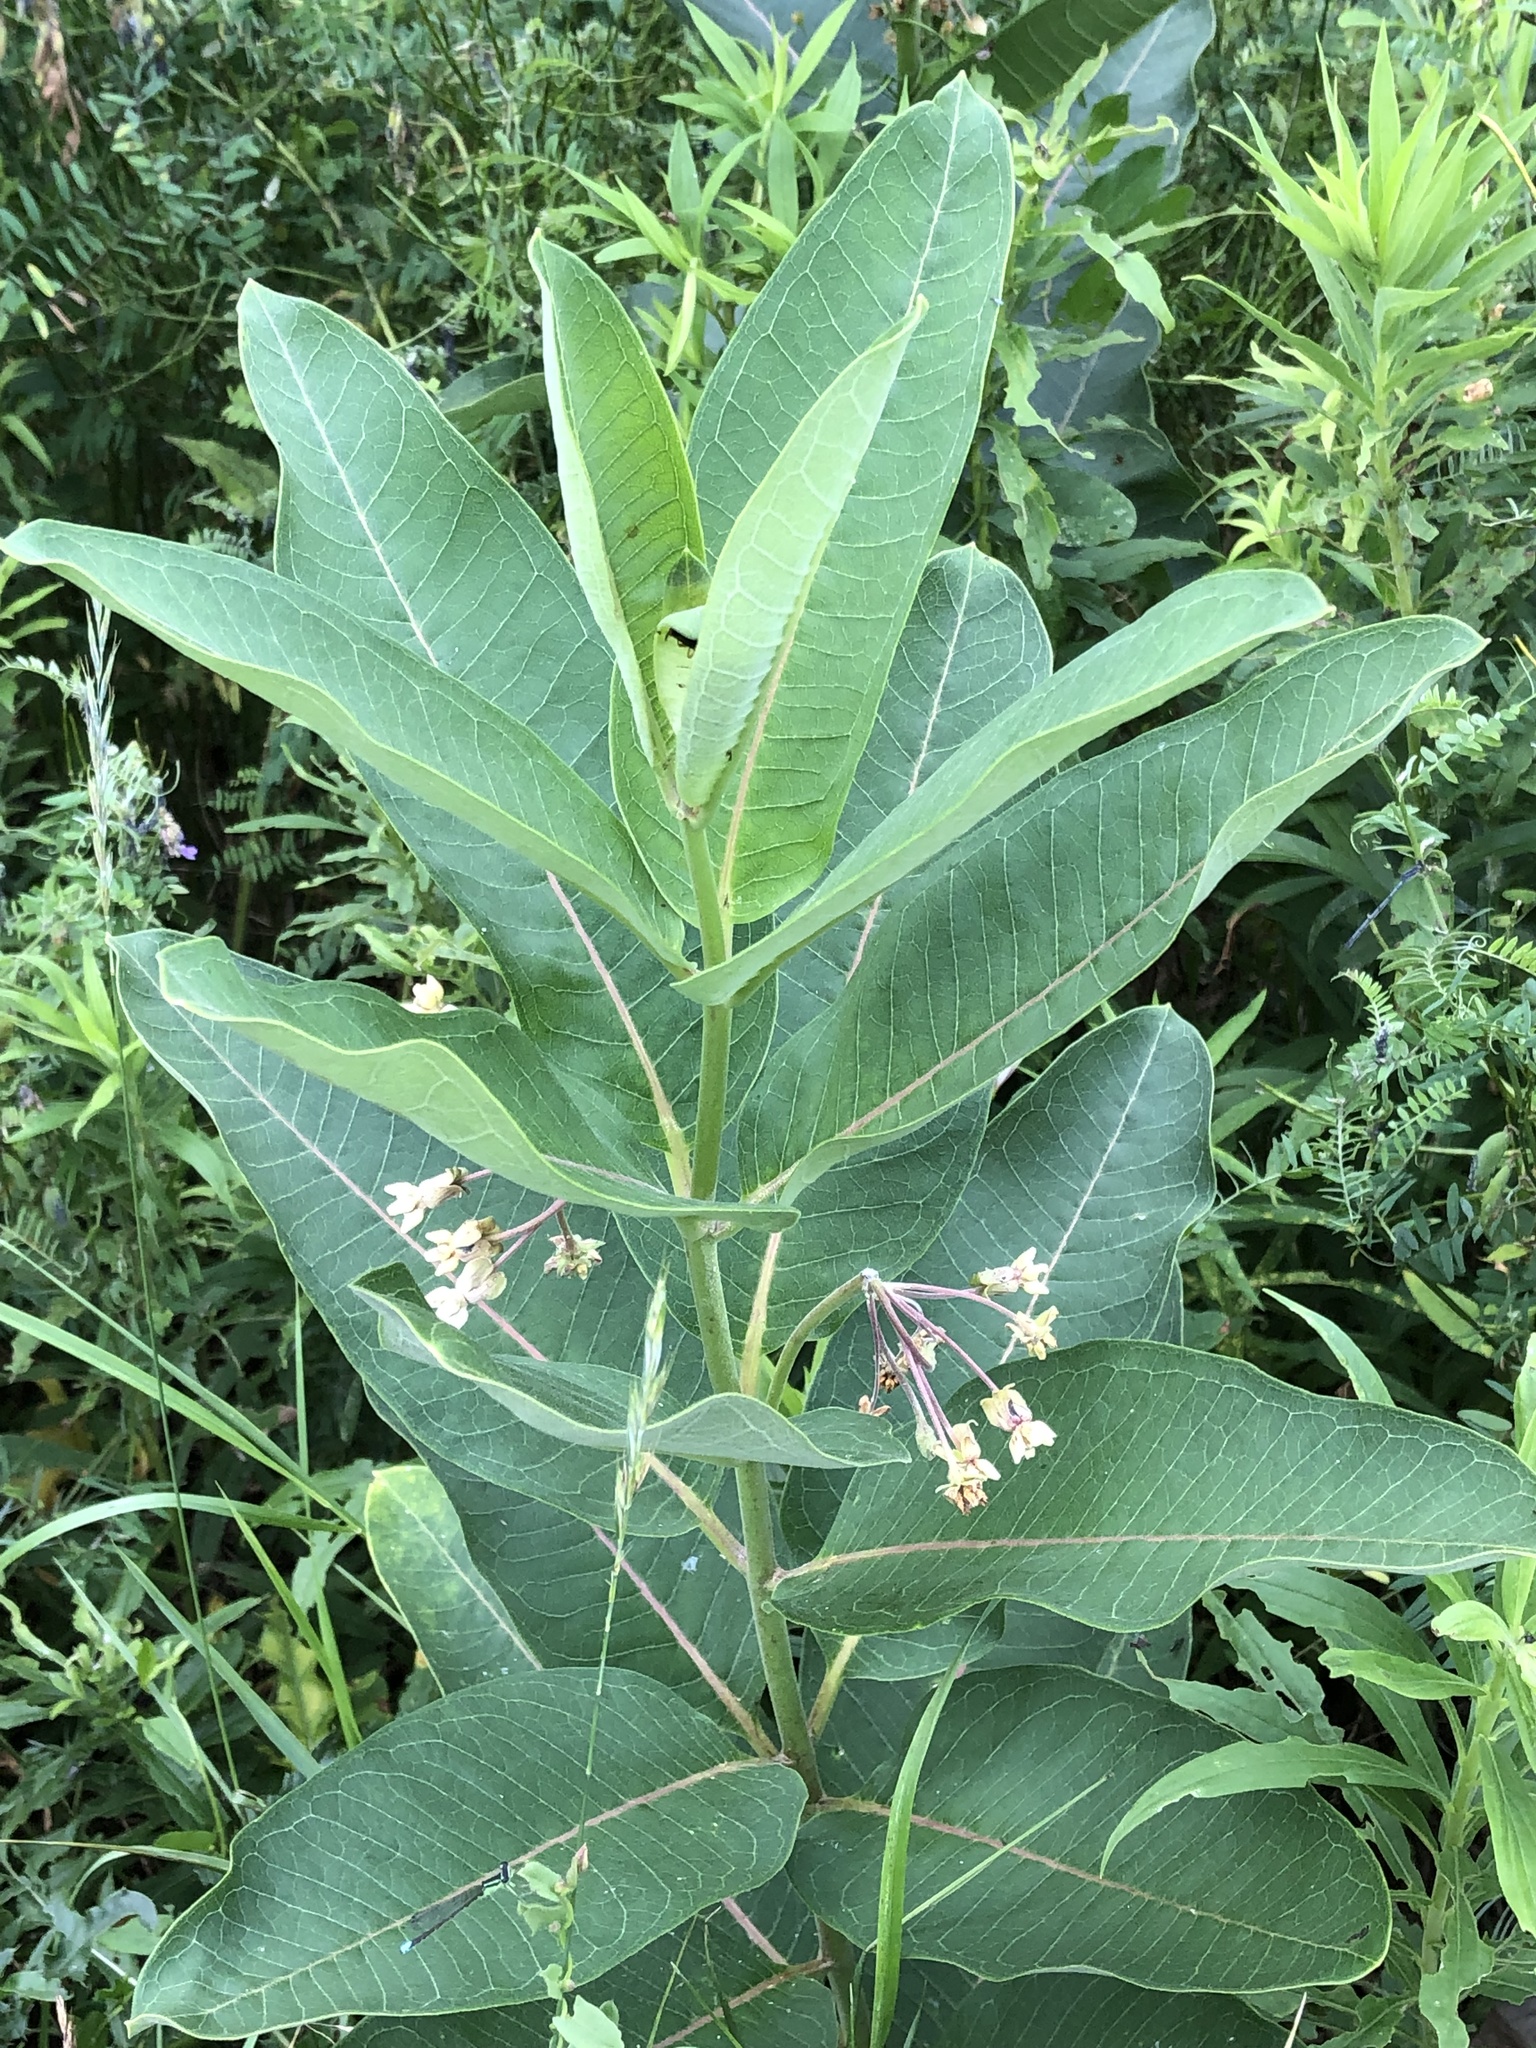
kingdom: Plantae
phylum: Tracheophyta
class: Magnoliopsida
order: Gentianales
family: Apocynaceae
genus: Asclepias
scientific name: Asclepias syriaca
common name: Common milkweed
